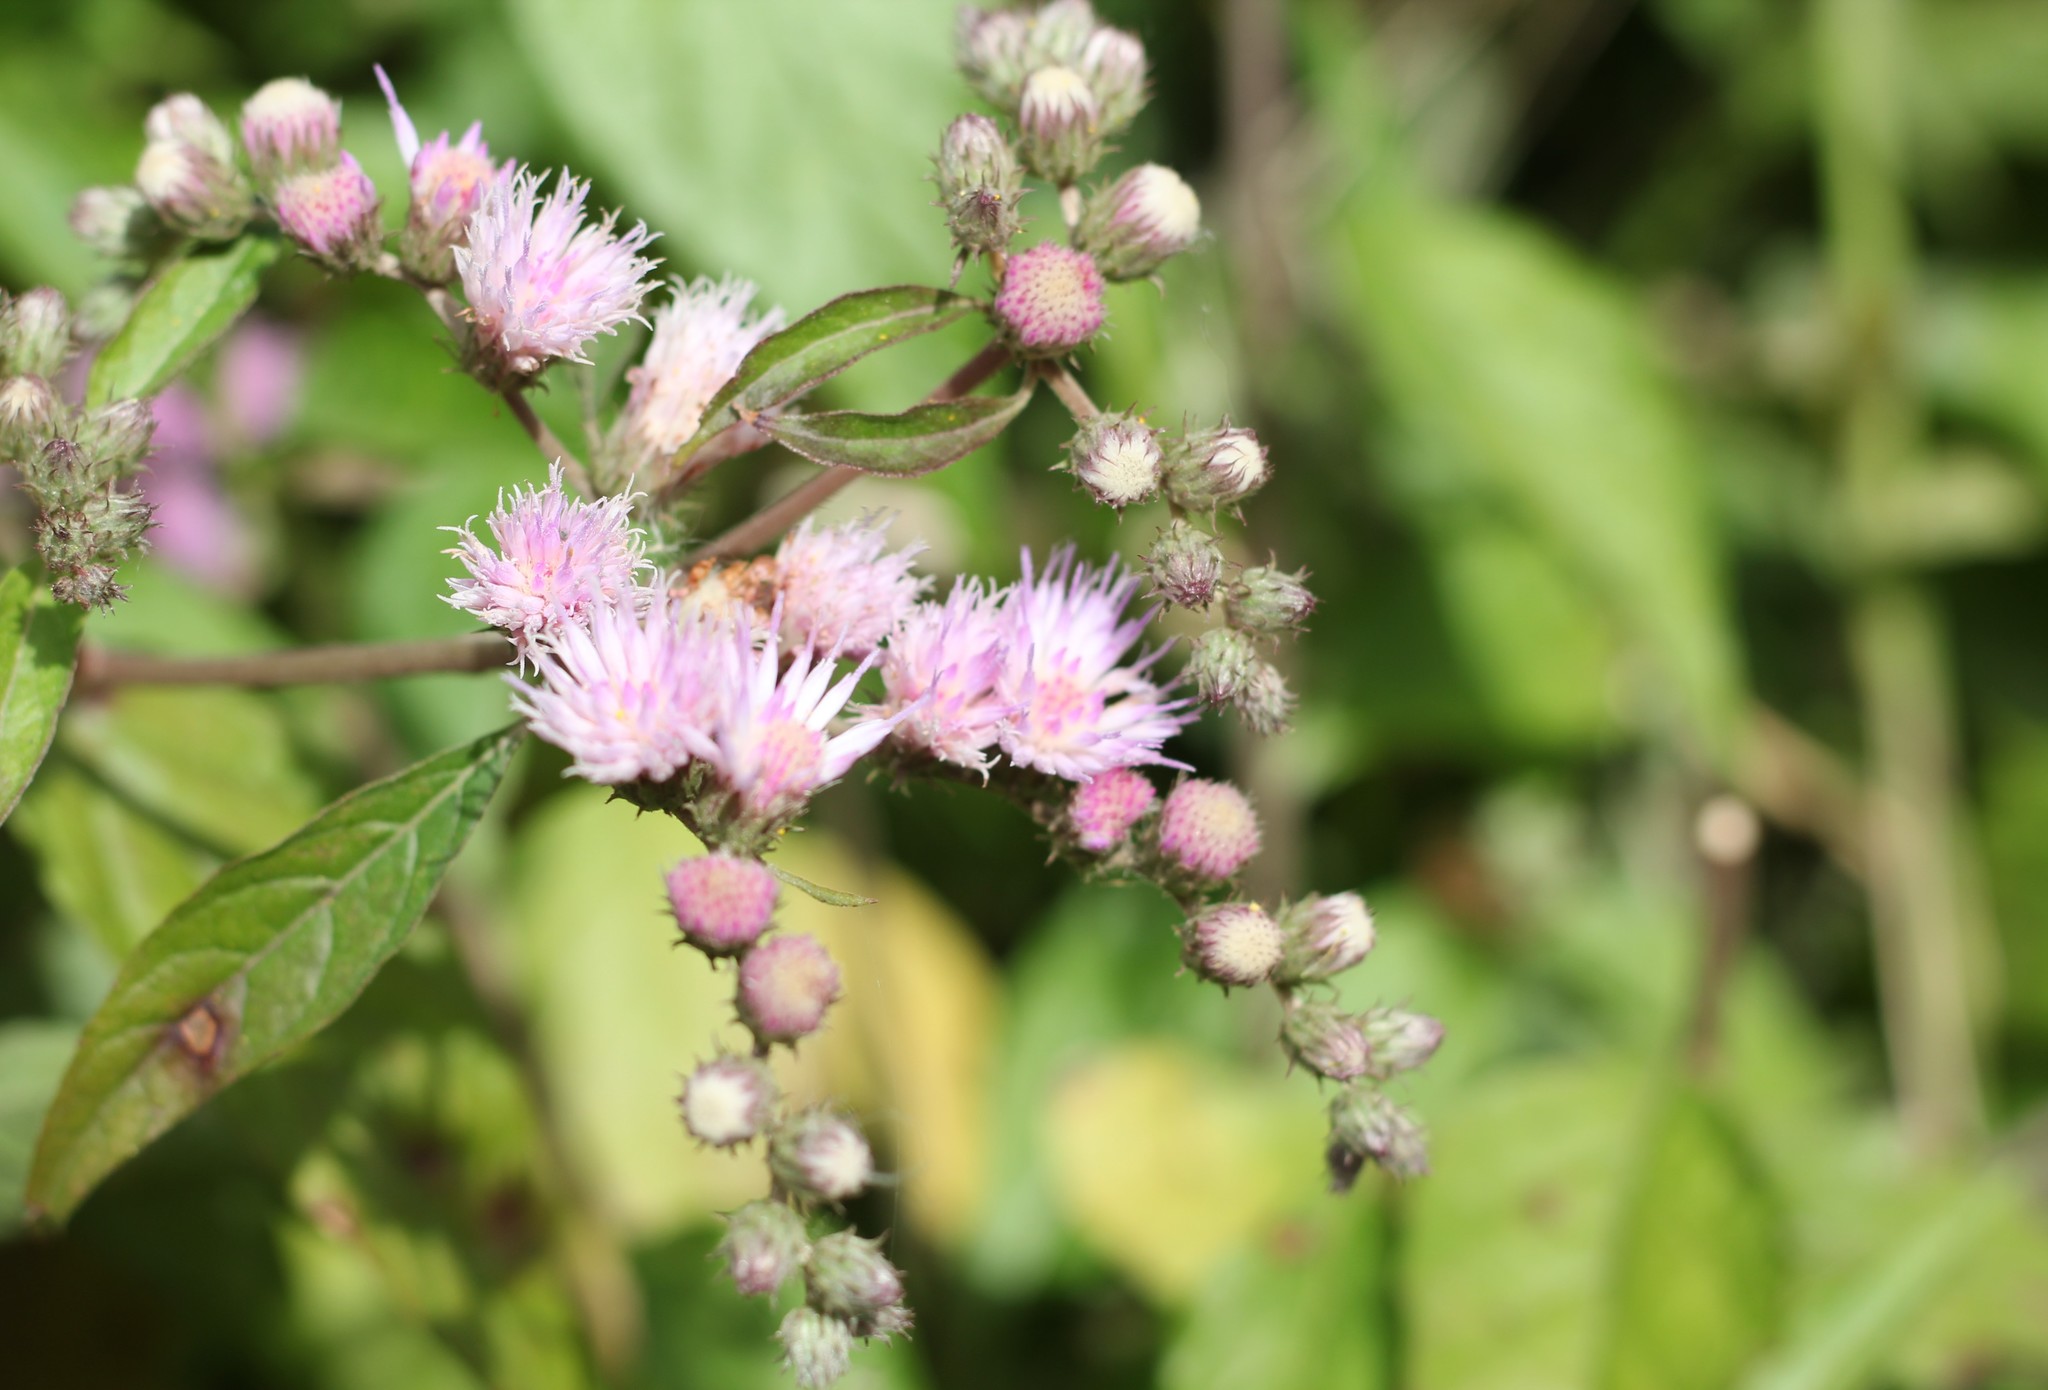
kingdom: Plantae
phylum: Tracheophyta
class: Magnoliopsida
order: Asterales
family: Asteraceae
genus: Cyrtocymura
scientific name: Cyrtocymura scorpioides
